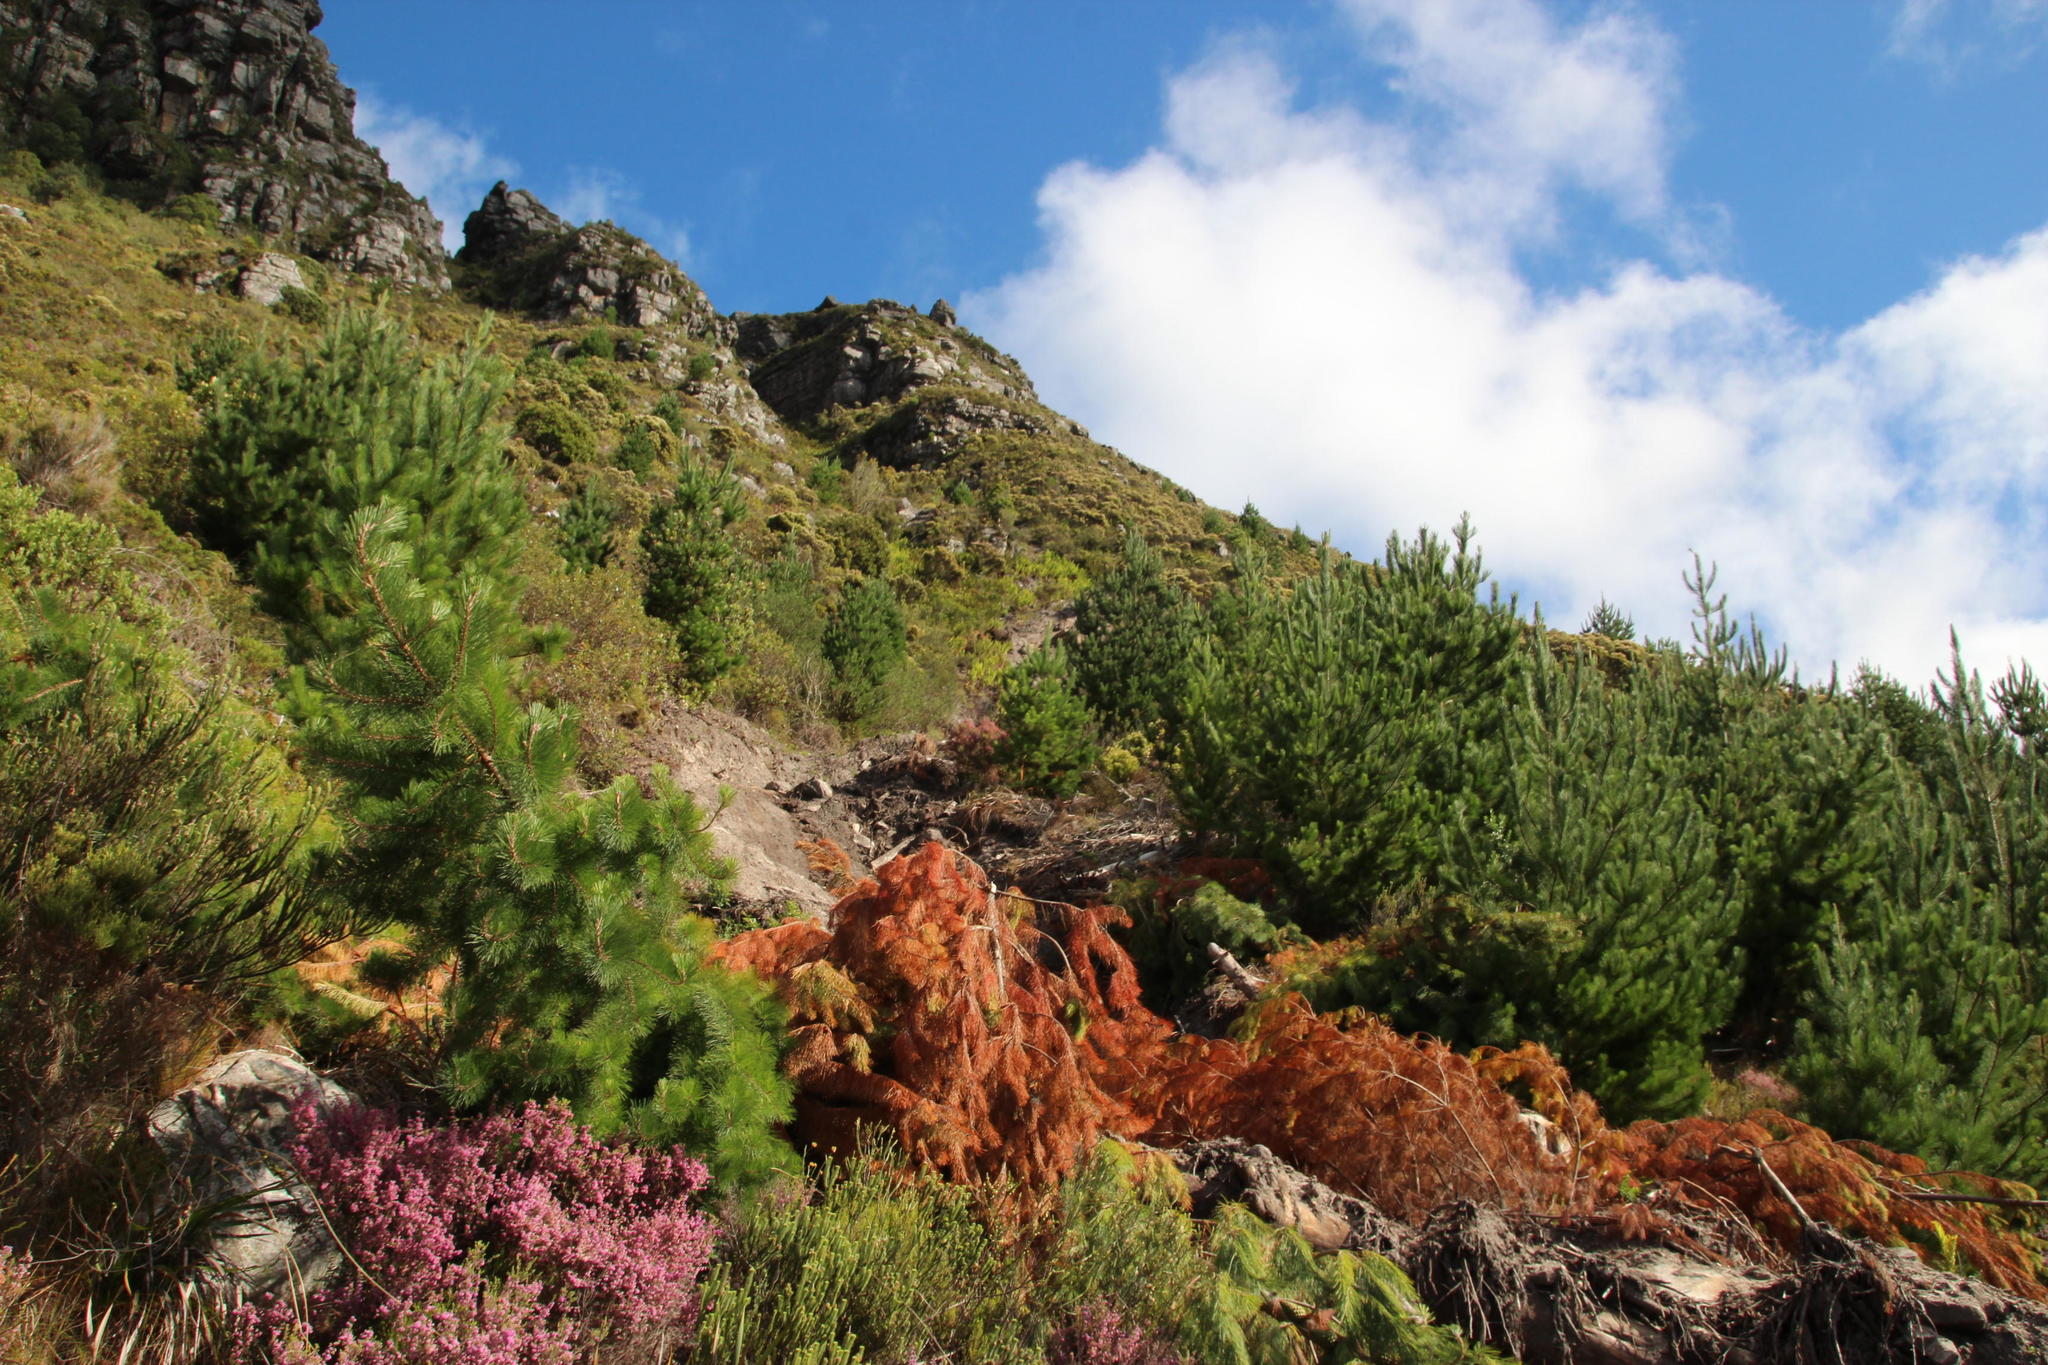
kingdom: Plantae
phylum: Tracheophyta
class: Pinopsida
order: Pinales
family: Pinaceae
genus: Pinus
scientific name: Pinus radiata
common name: Monterey pine
